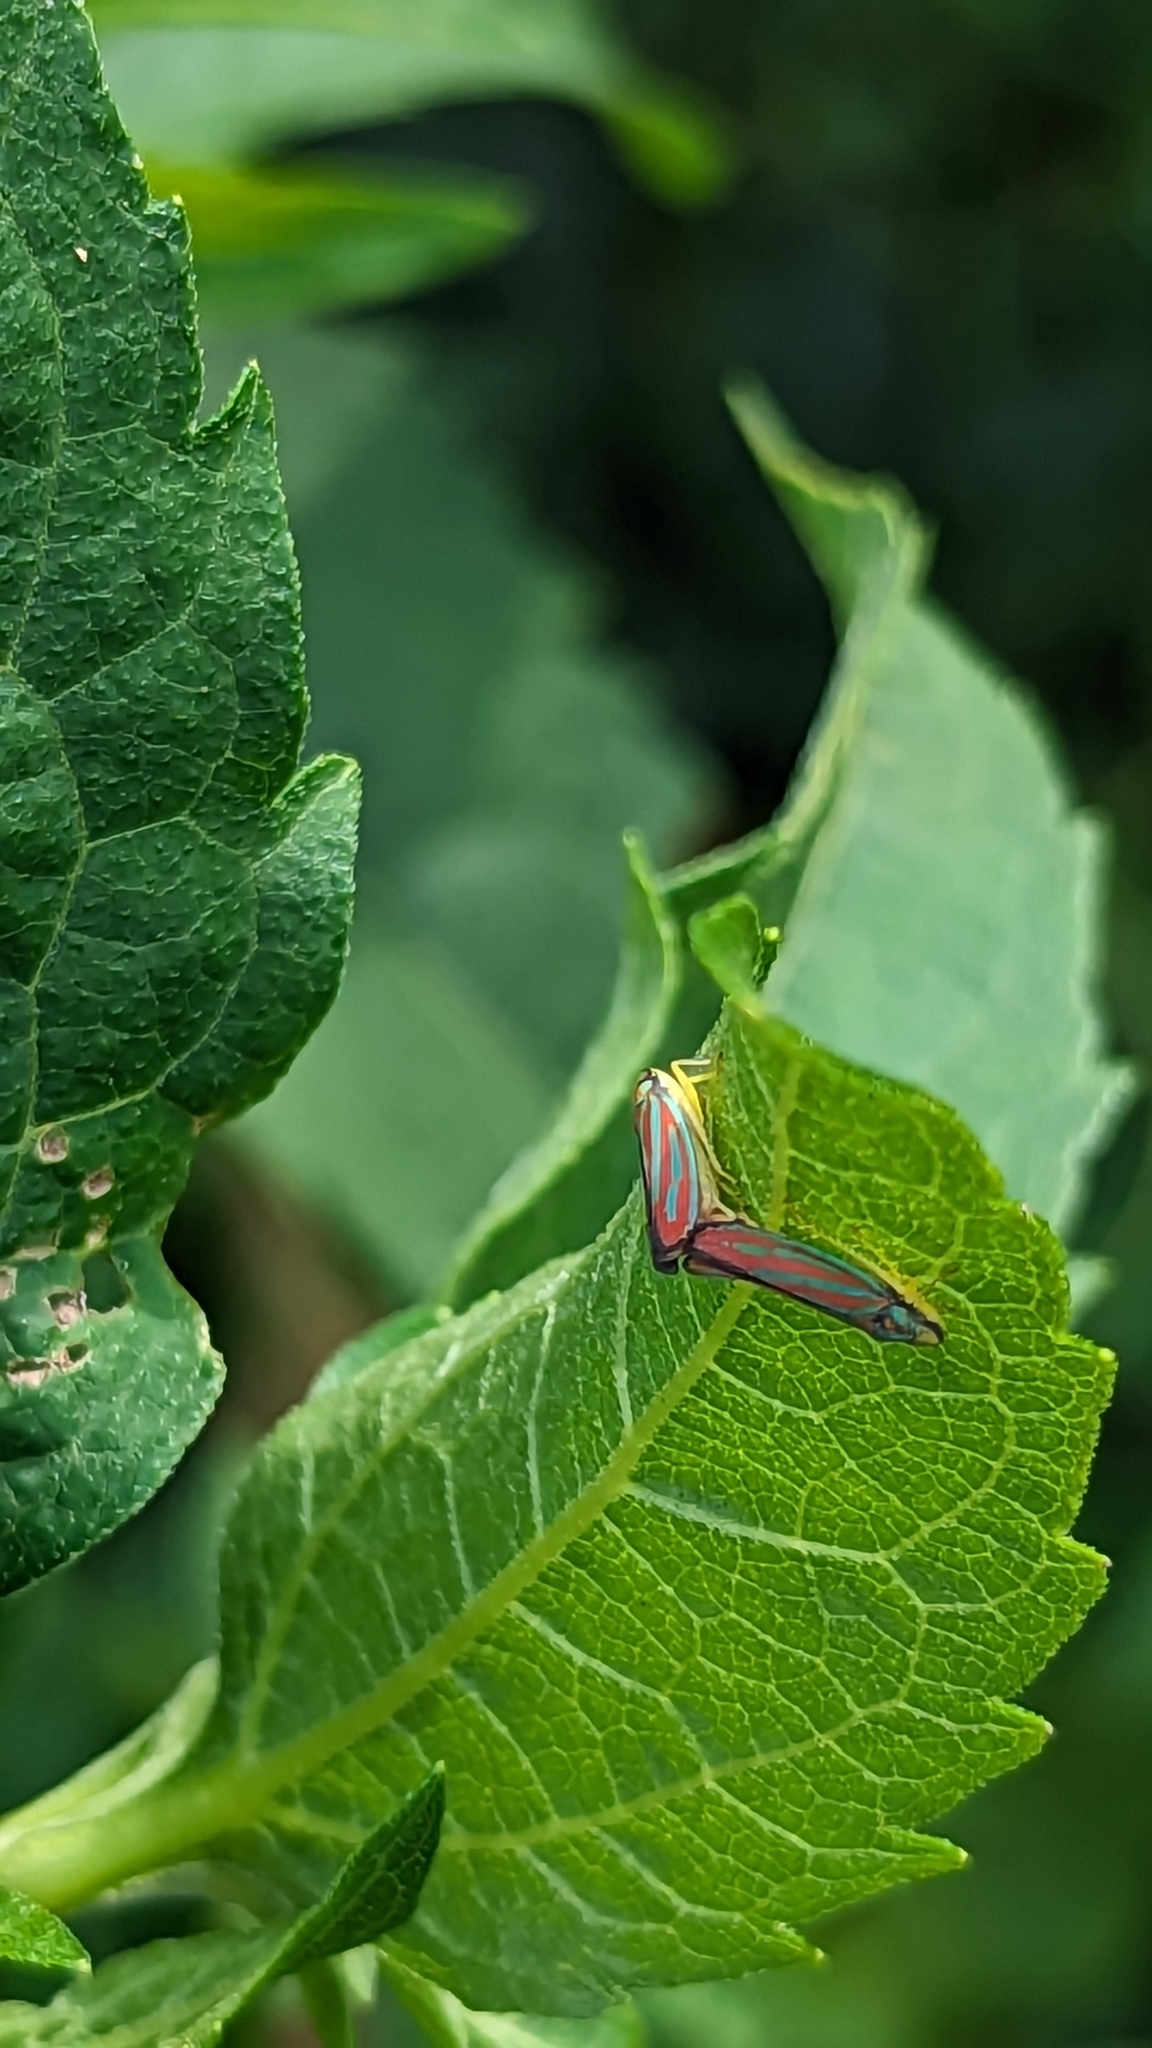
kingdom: Animalia
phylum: Arthropoda
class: Insecta
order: Hemiptera
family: Cicadellidae
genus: Graphocephala
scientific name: Graphocephala coccinea
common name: Candy-striped leafhopper
